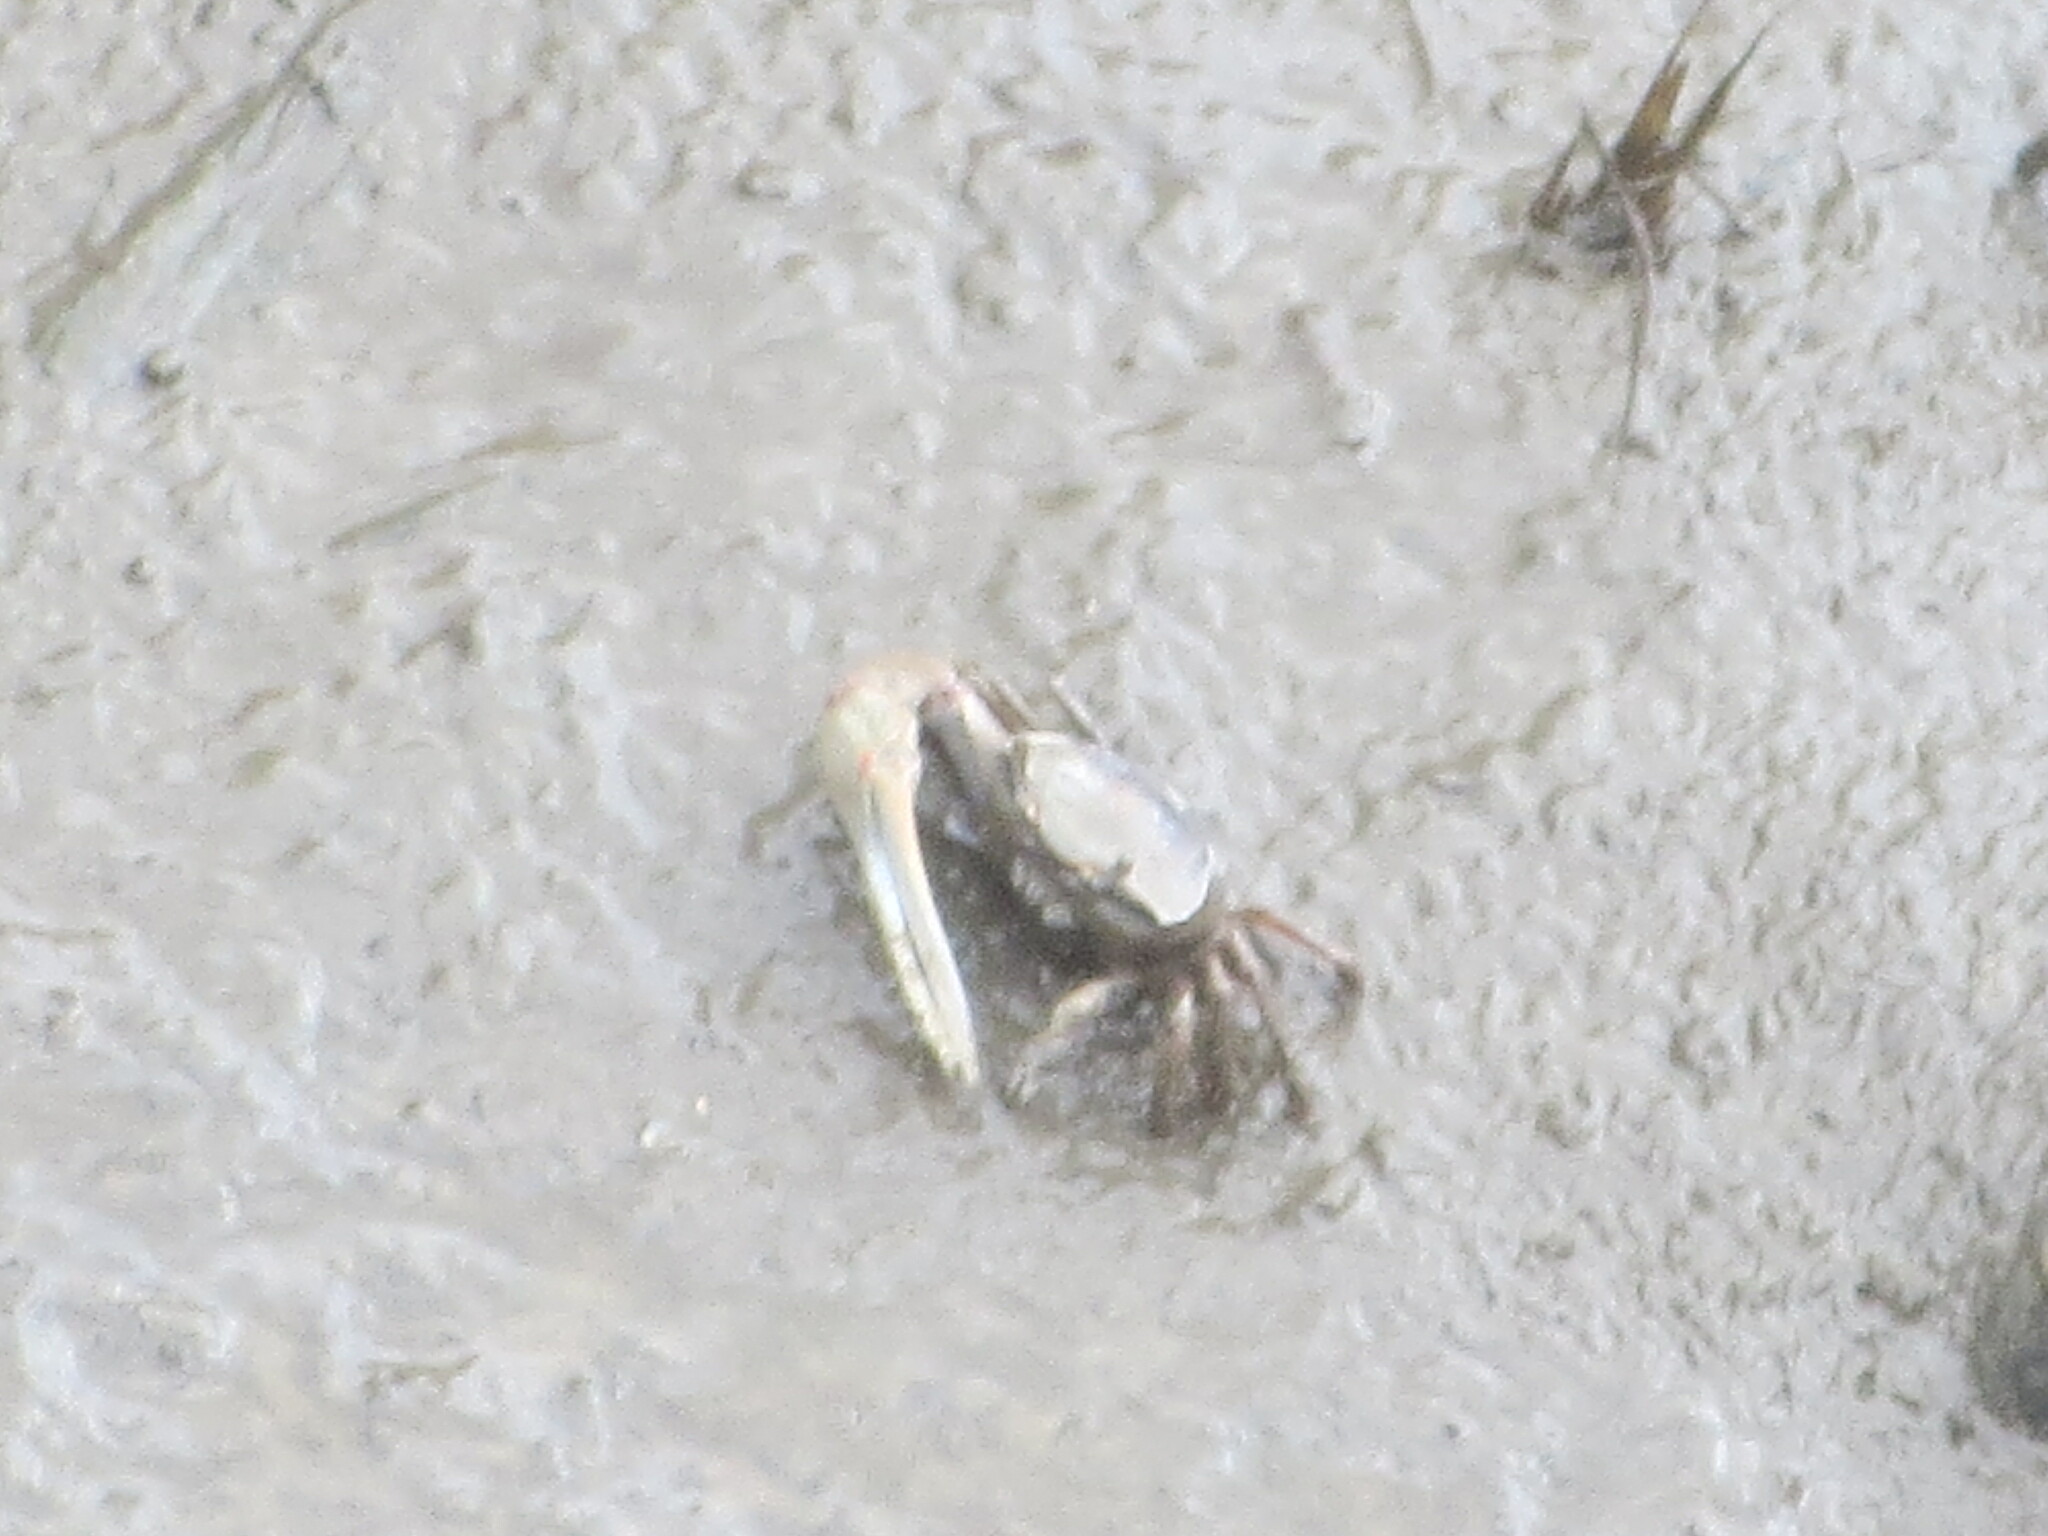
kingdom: Animalia
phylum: Arthropoda
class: Malacostraca
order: Decapoda
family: Ocypodidae
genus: Minuca
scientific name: Minuca minax
